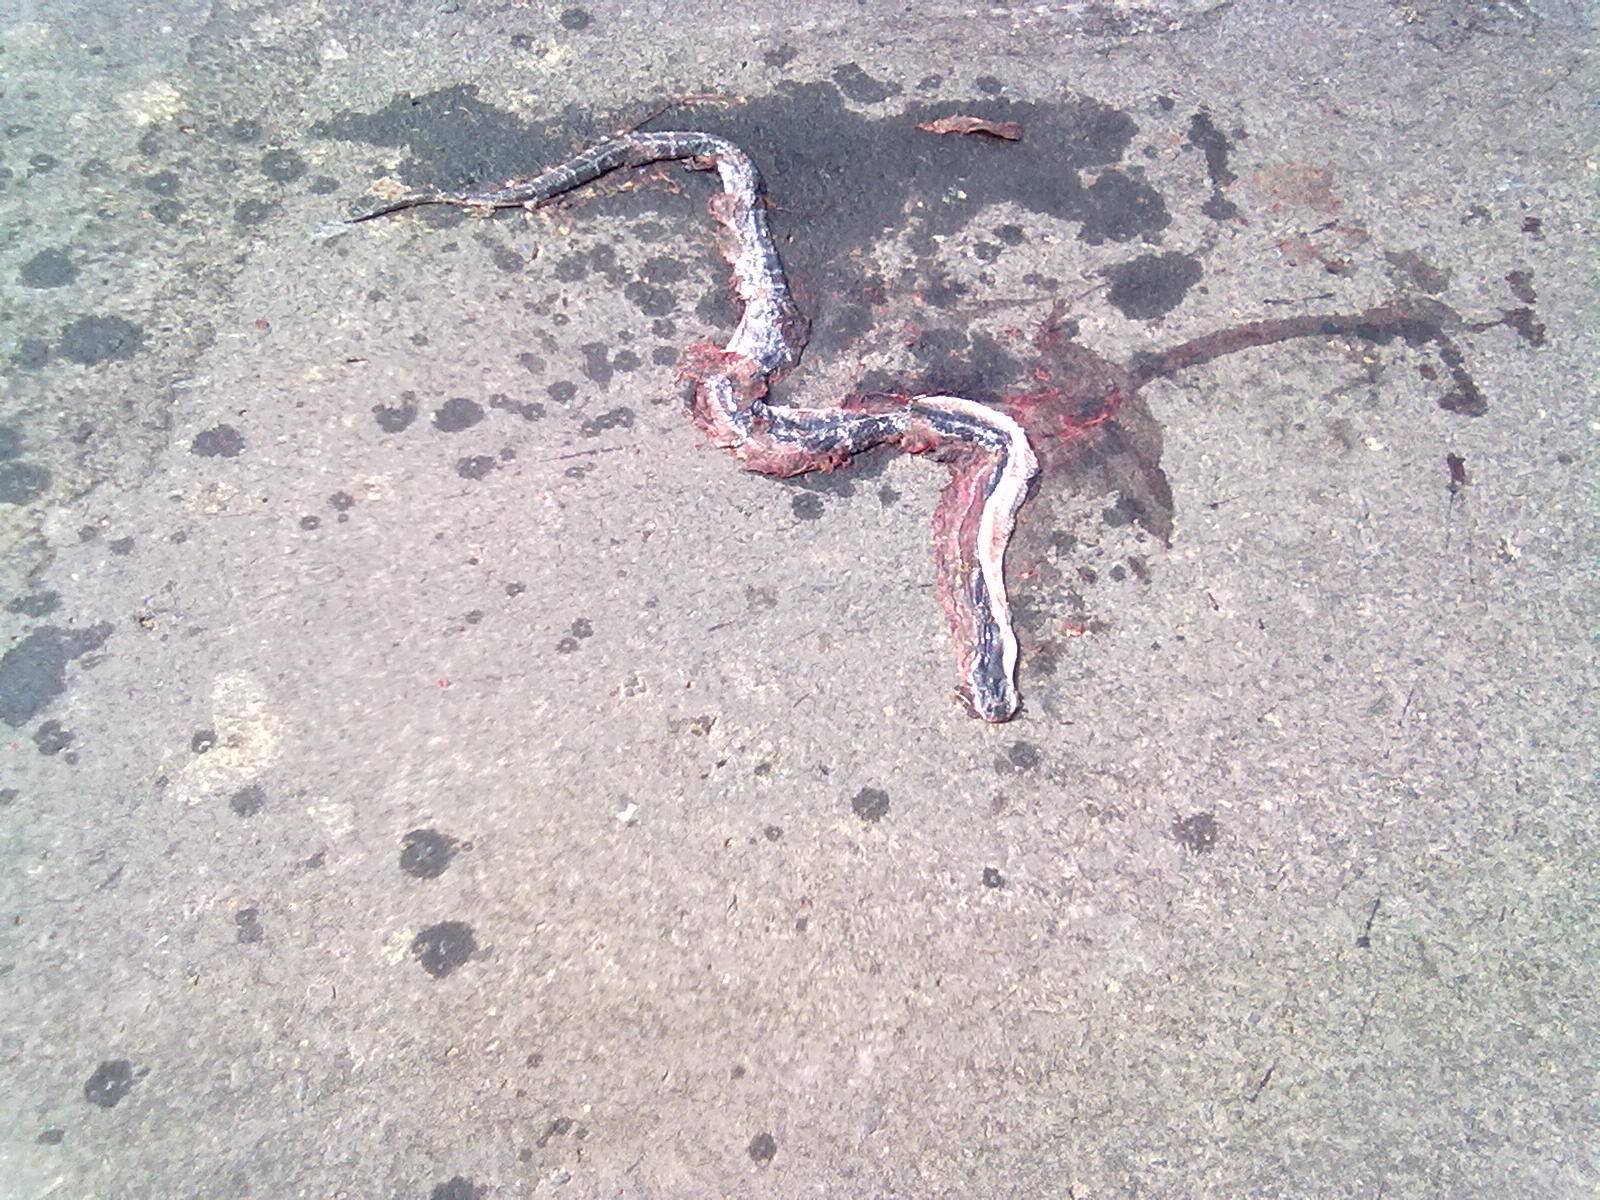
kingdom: Animalia
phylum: Chordata
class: Squamata
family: Elapidae
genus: Bungarus
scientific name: Bungarus caeruleus
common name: Common krait
